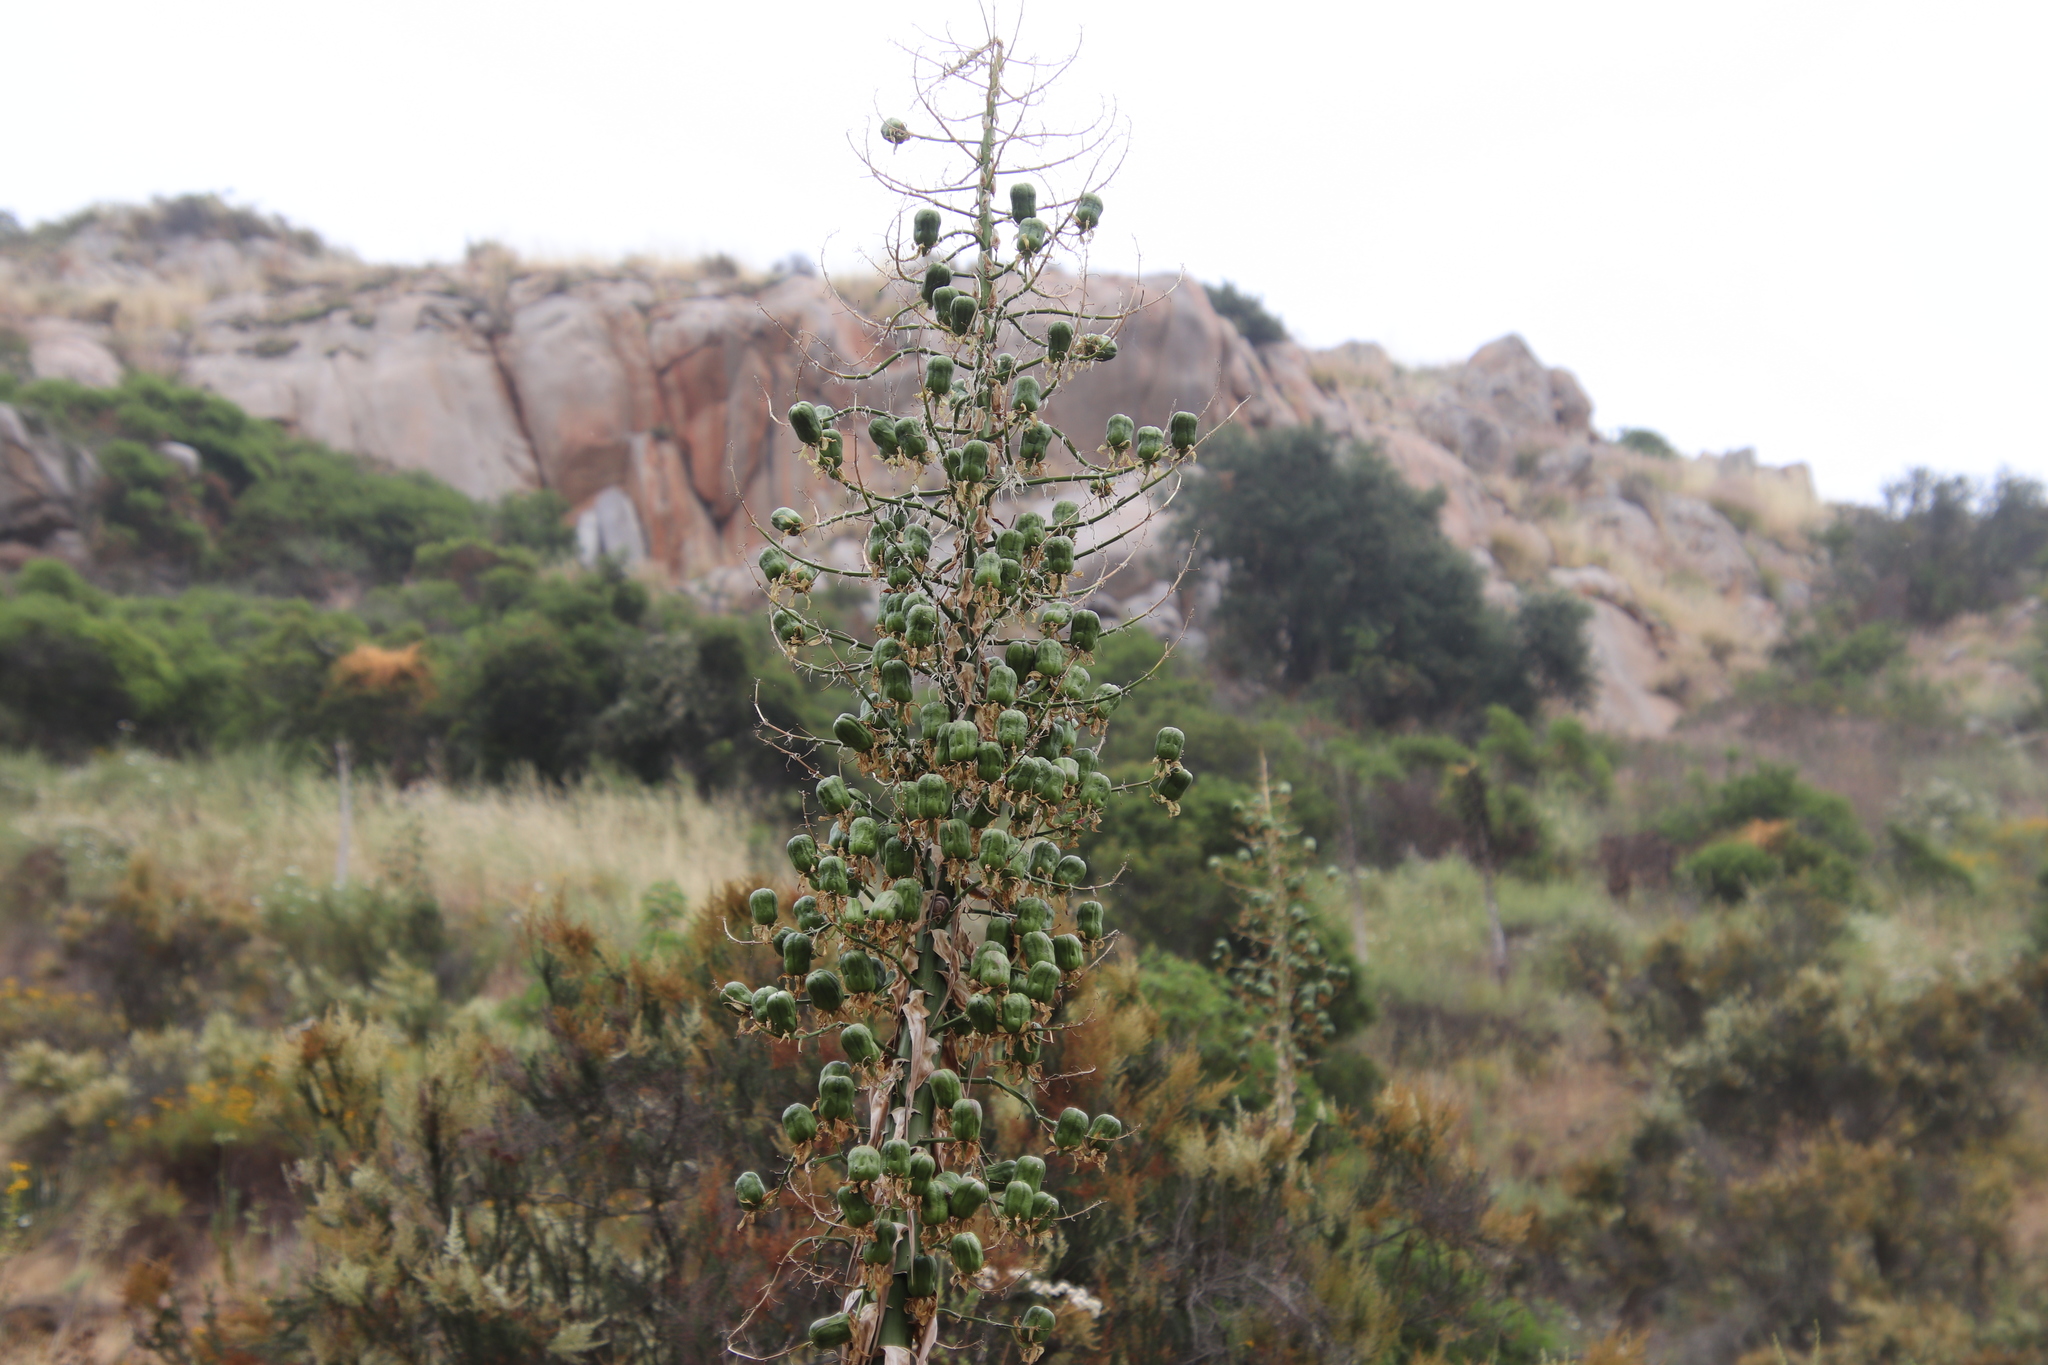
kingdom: Plantae
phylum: Tracheophyta
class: Liliopsida
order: Asparagales
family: Asparagaceae
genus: Hesperoyucca
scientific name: Hesperoyucca whipplei
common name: Our lord's-candle
